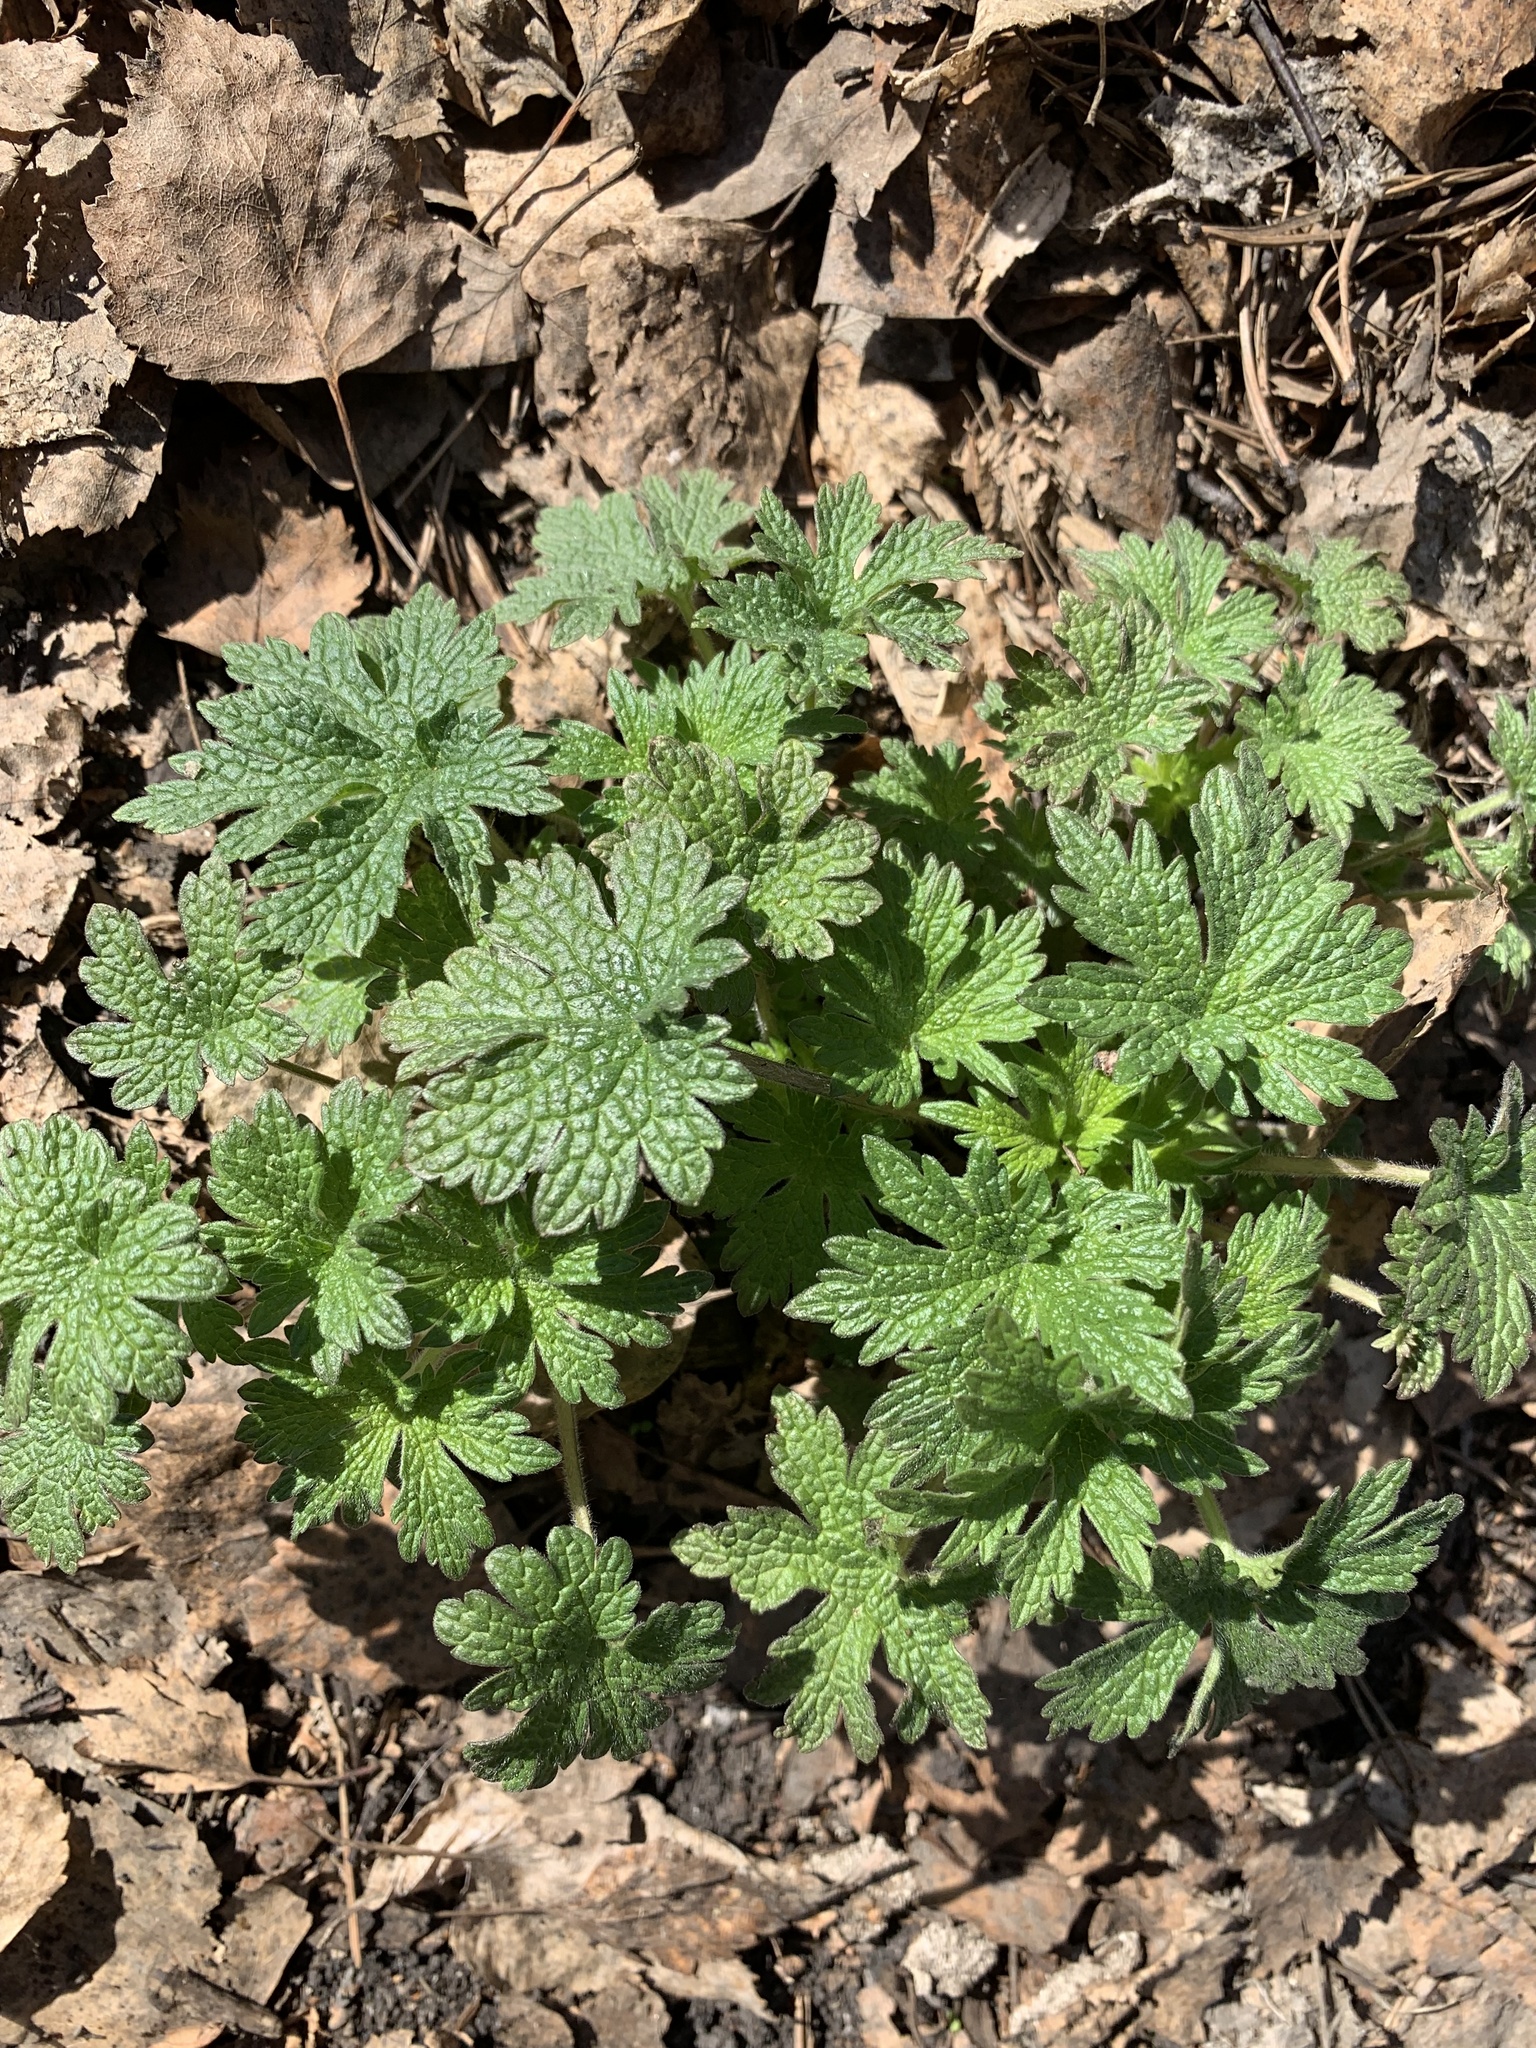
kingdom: Plantae
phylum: Tracheophyta
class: Magnoliopsida
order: Lamiales
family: Lamiaceae
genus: Leonurus
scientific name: Leonurus quinquelobatus
